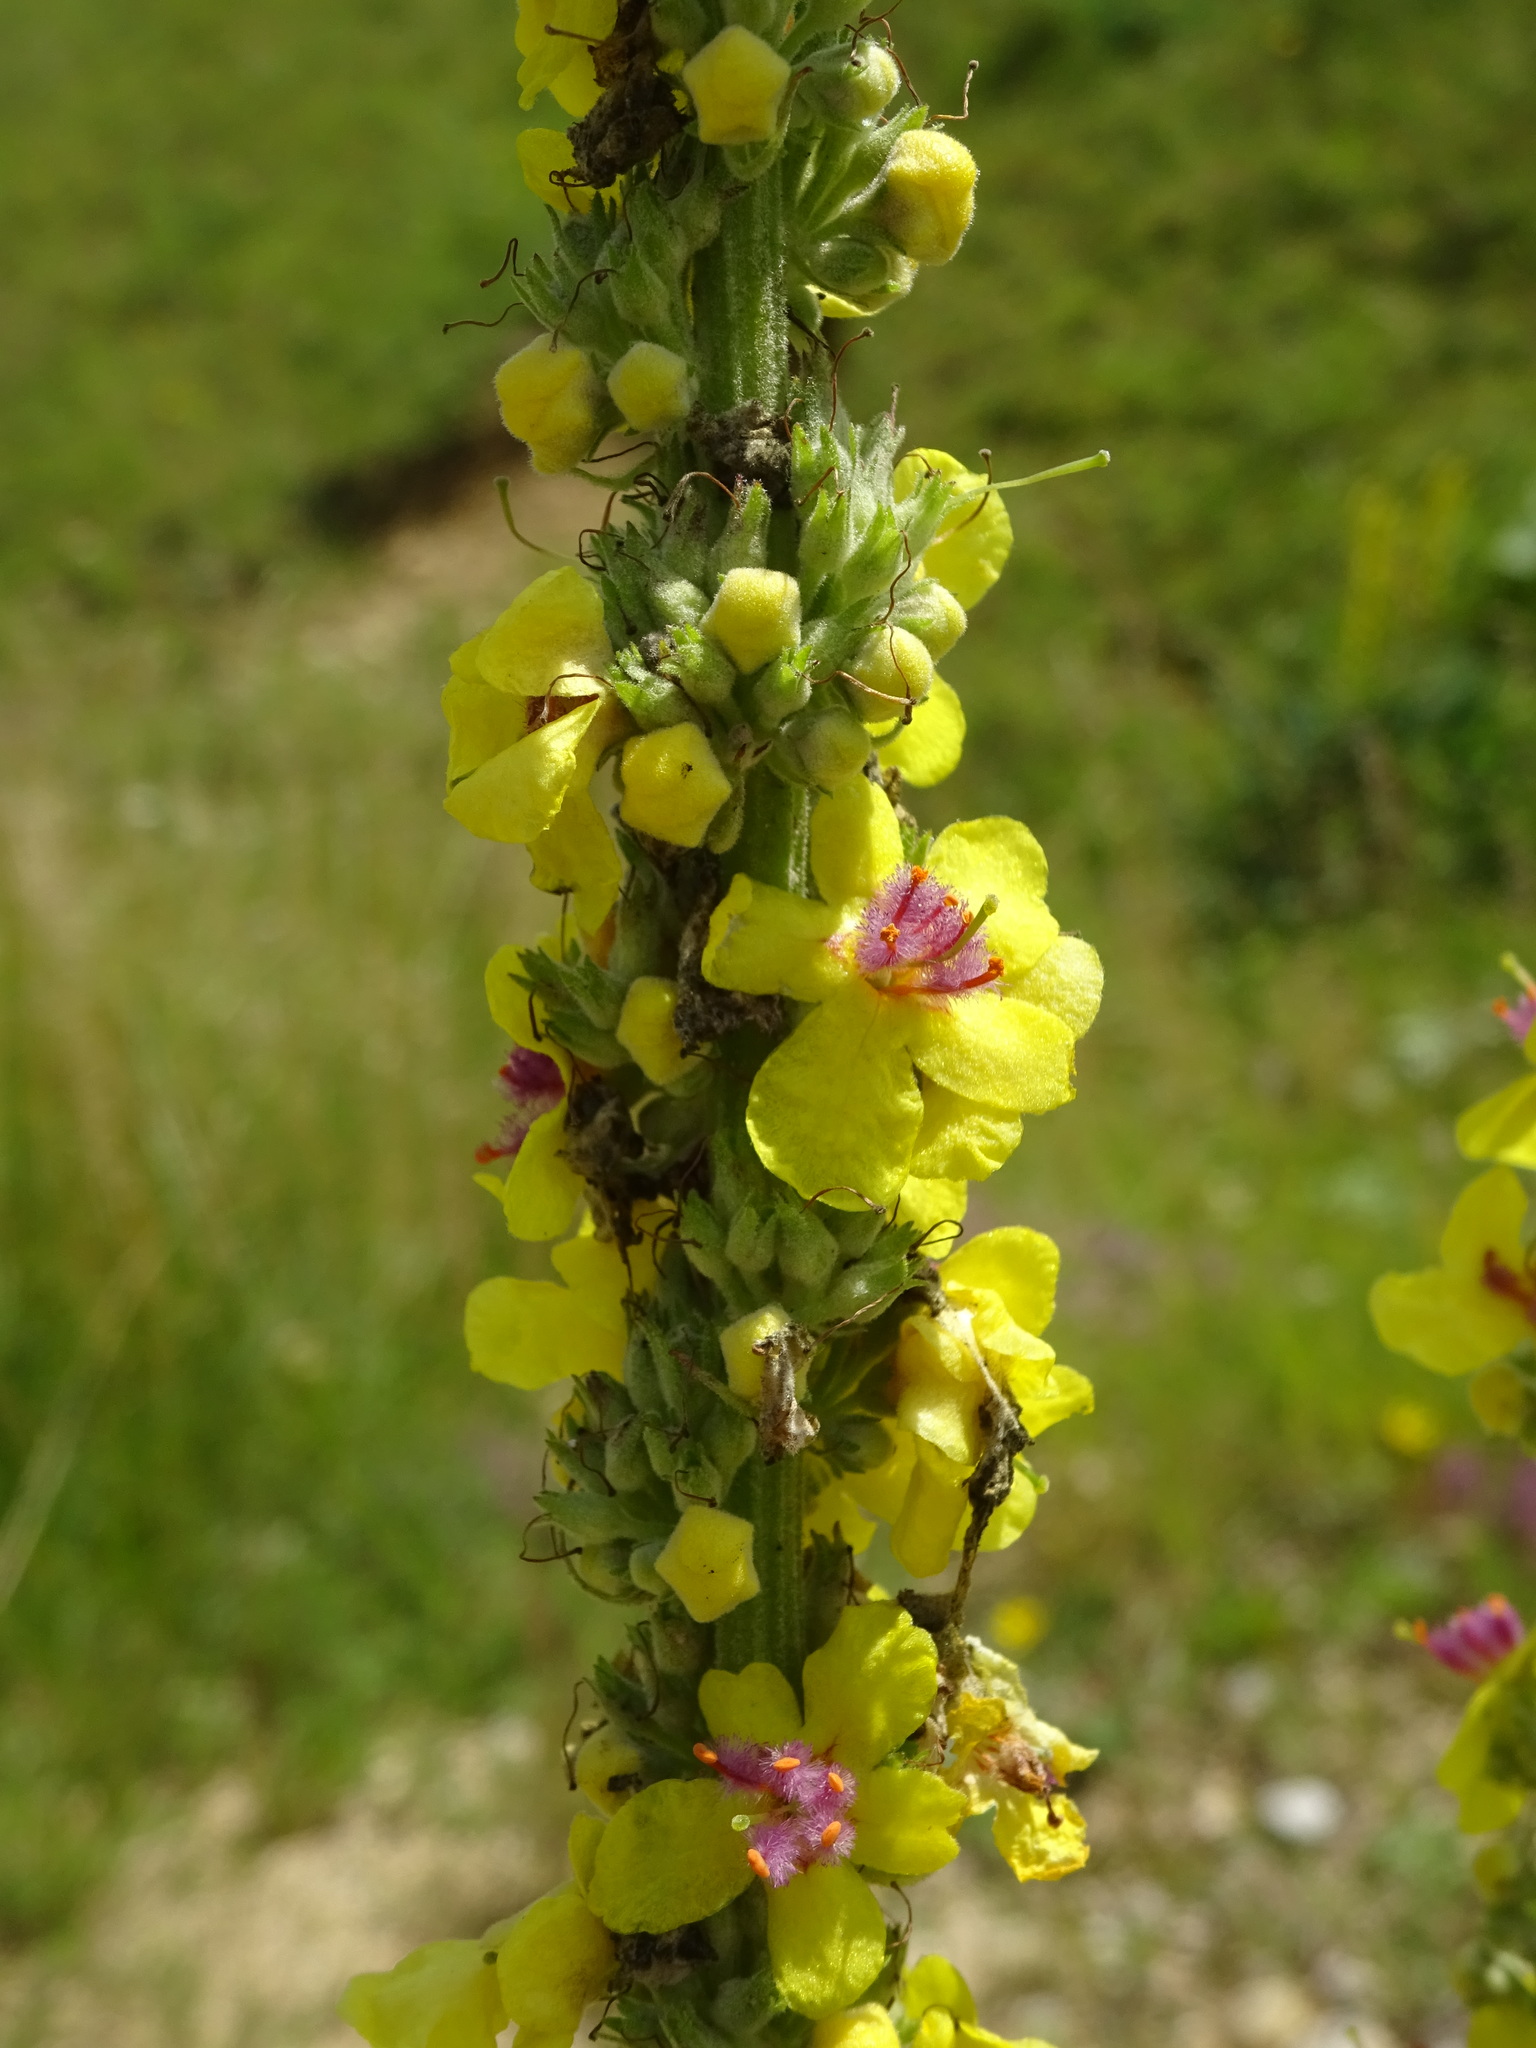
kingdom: Plantae
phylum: Tracheophyta
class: Magnoliopsida
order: Lamiales
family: Scrophulariaceae
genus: Verbascum
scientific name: Verbascum nigrum
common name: Dark mullein
